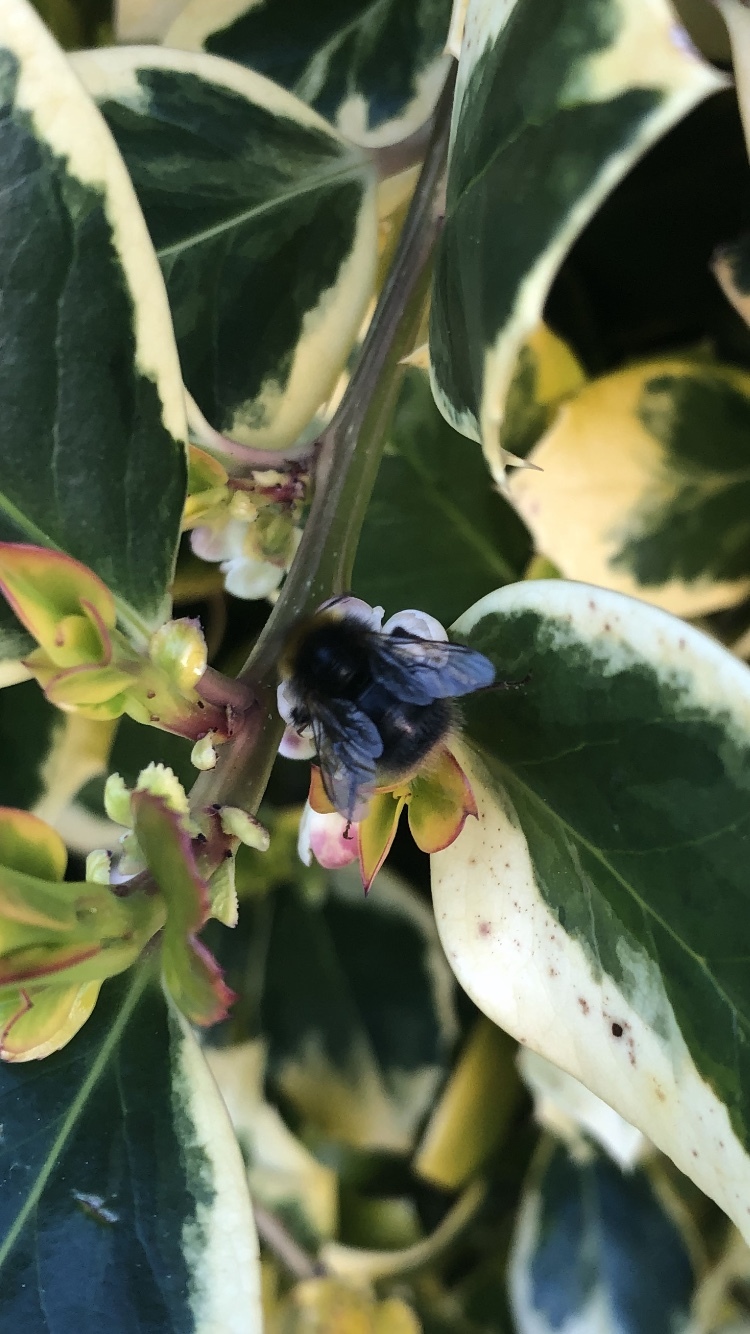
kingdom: Animalia
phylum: Arthropoda
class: Insecta
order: Hymenoptera
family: Apidae
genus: Bombus
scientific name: Bombus pratorum
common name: Early humble-bee
